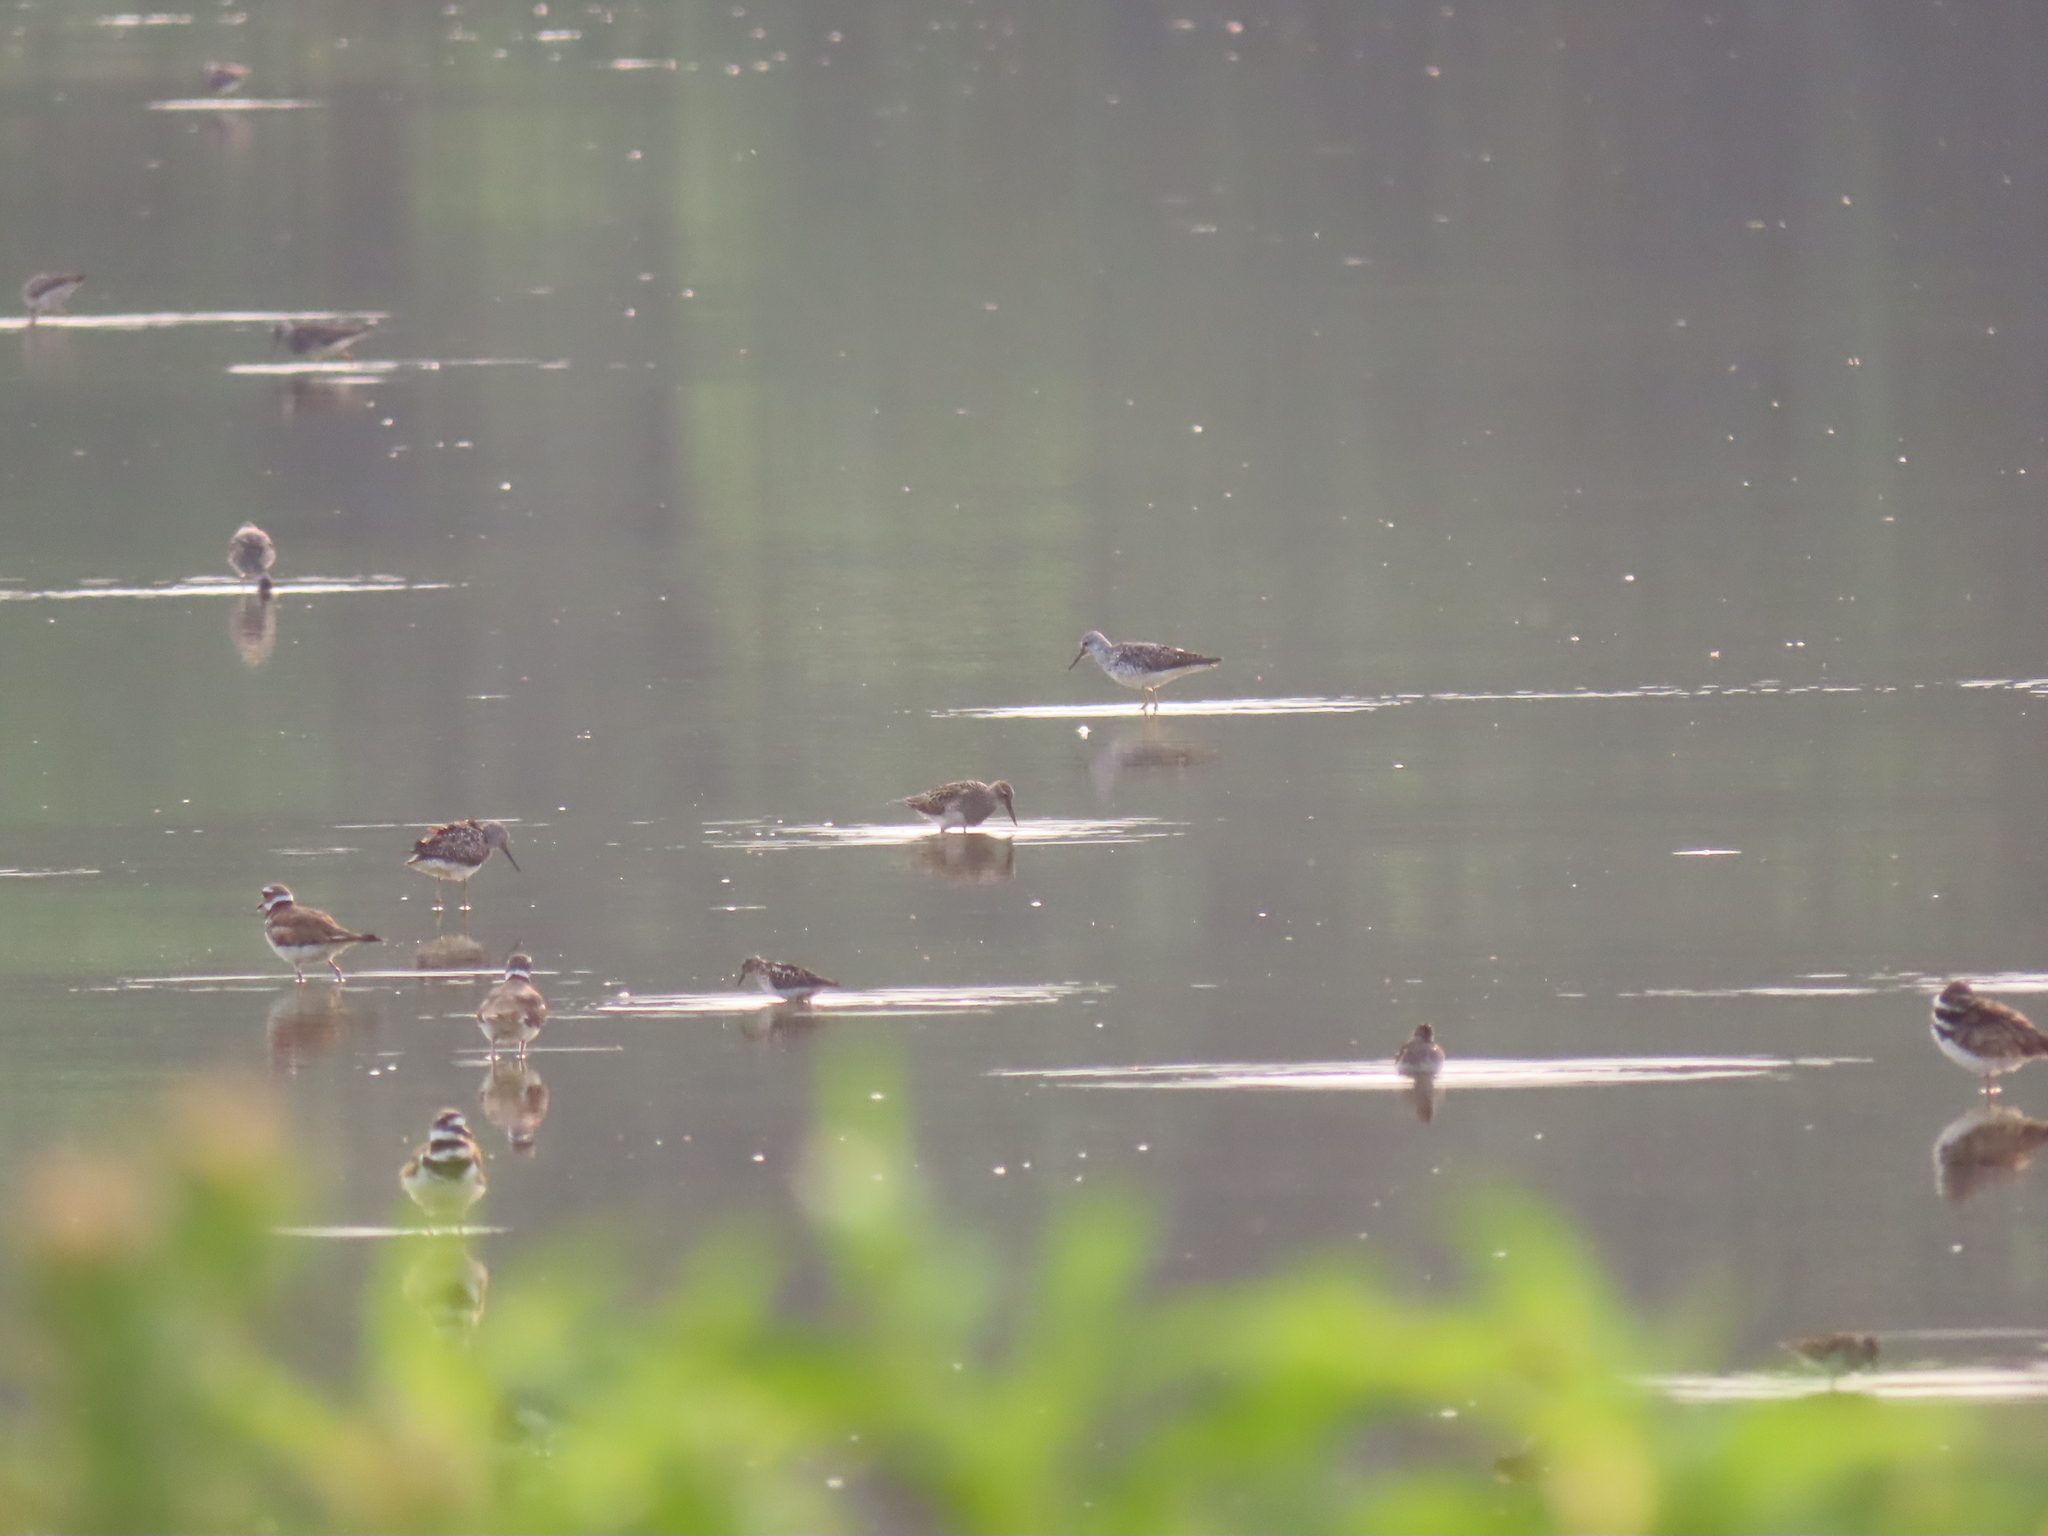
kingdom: Animalia
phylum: Chordata
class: Aves
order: Charadriiformes
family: Scolopacidae
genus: Calidris
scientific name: Calidris melanotos
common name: Pectoral sandpiper
